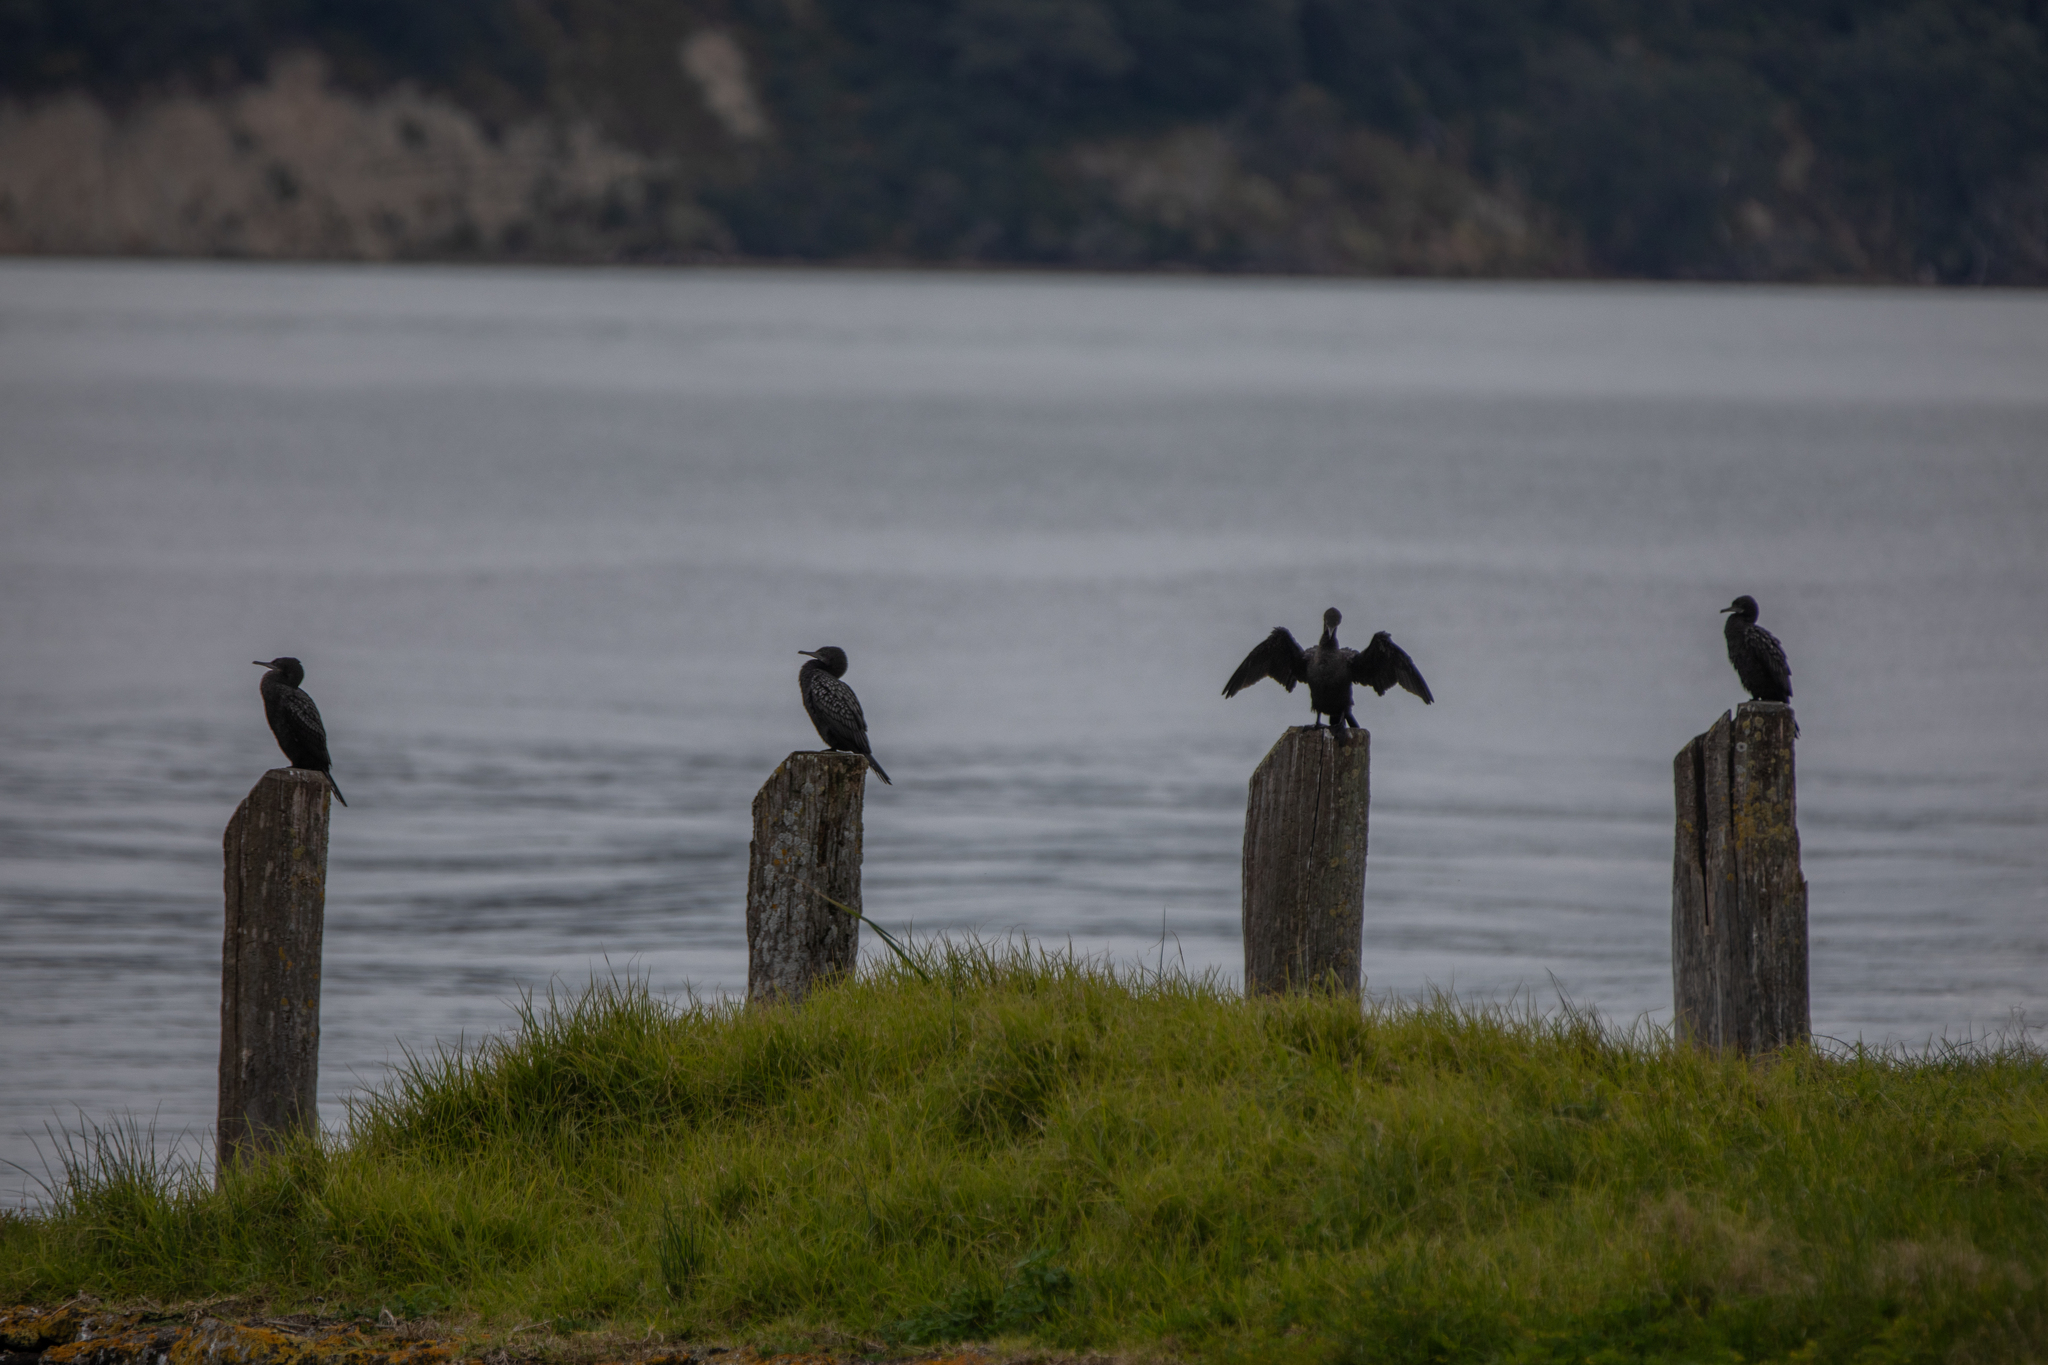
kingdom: Animalia
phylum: Chordata
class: Aves
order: Suliformes
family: Phalacrocoracidae
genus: Phalacrocorax
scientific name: Phalacrocorax sulcirostris
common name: Little black cormorant
